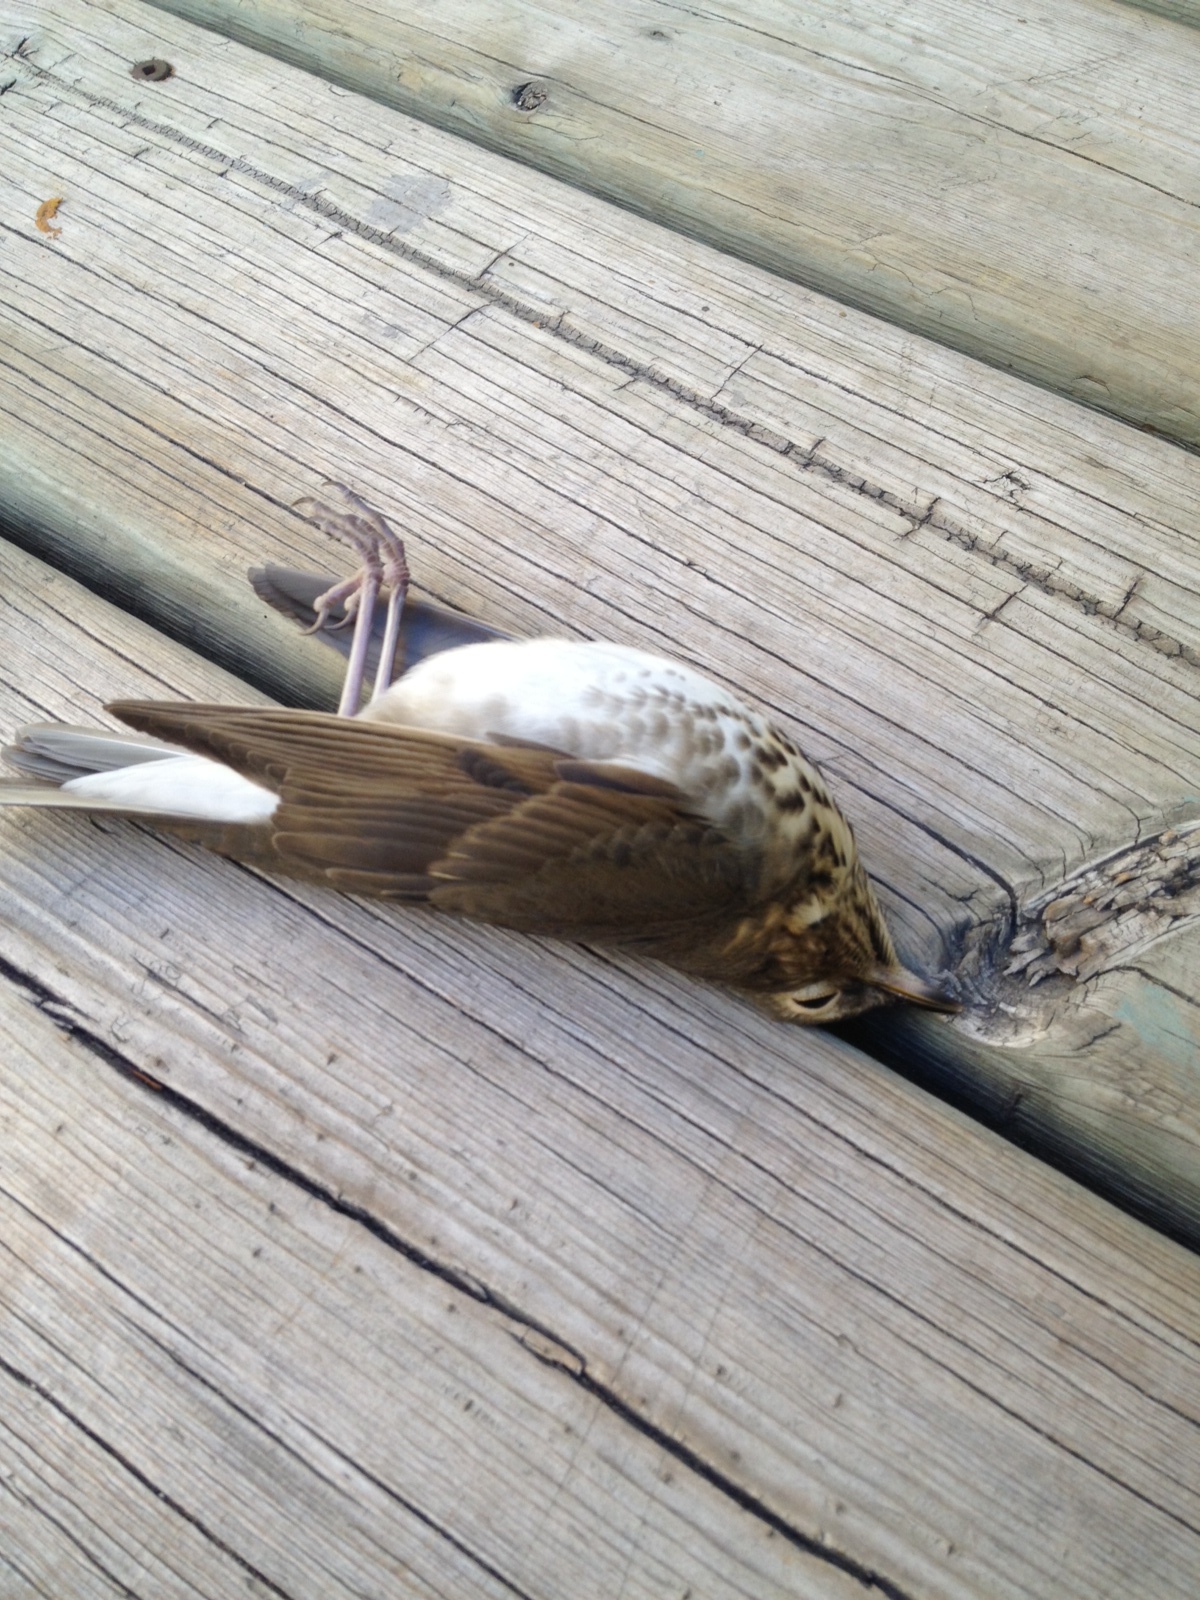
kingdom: Animalia
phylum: Chordata
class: Aves
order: Passeriformes
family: Turdidae
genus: Catharus
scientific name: Catharus ustulatus
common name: Swainson's thrush
